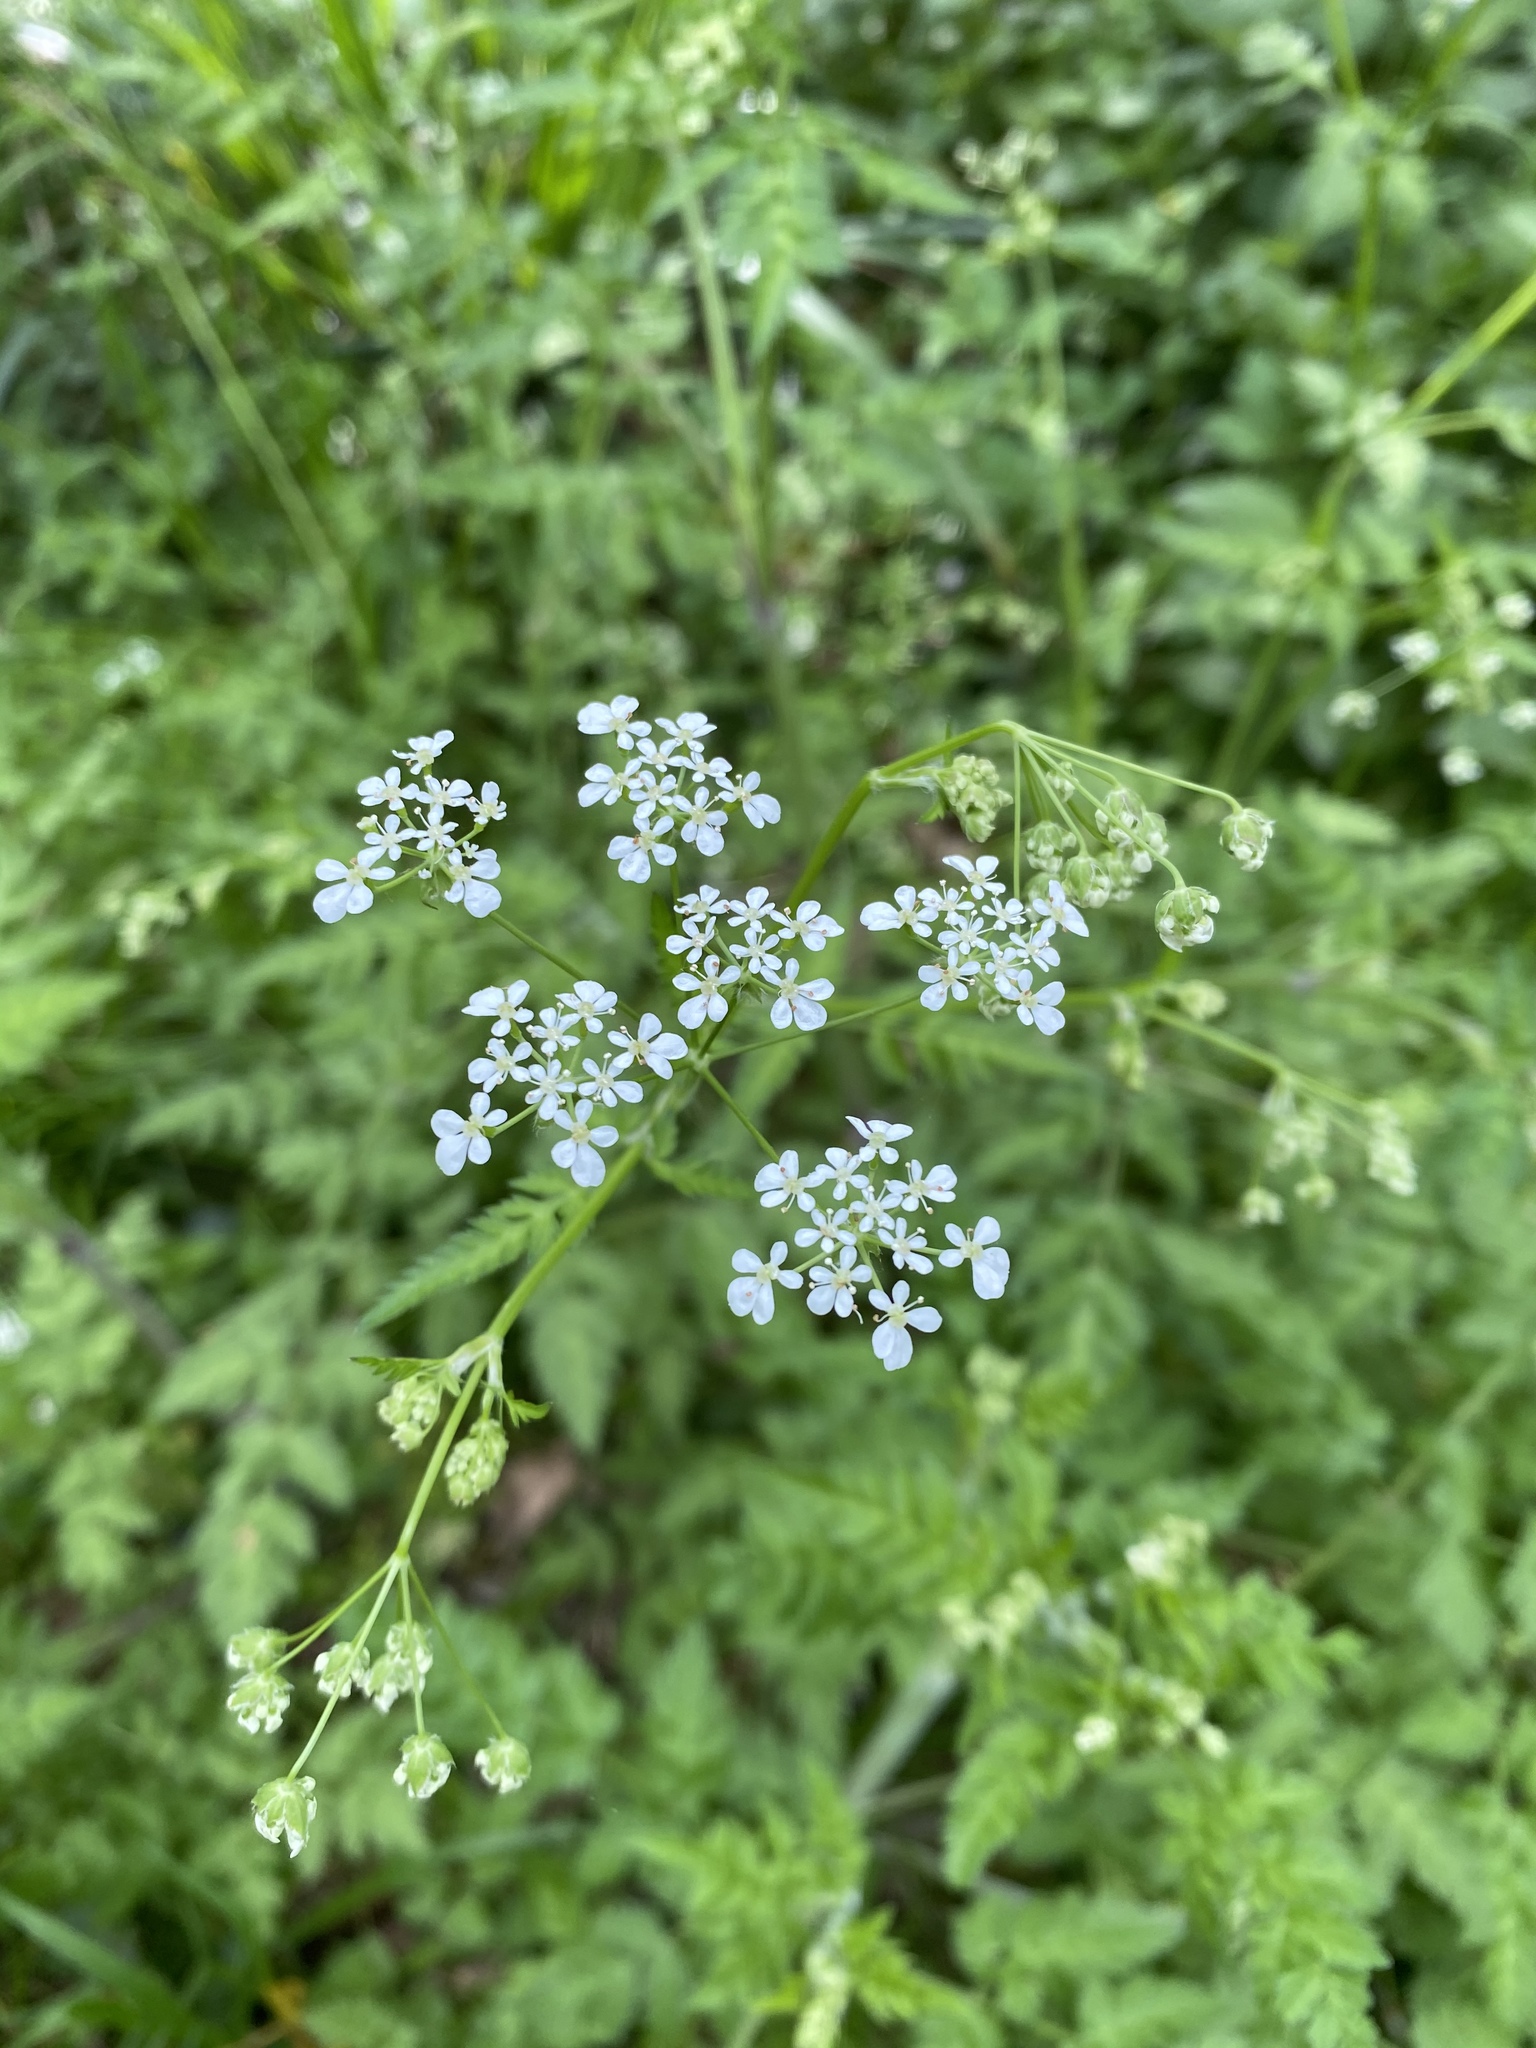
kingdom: Plantae
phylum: Tracheophyta
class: Magnoliopsida
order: Apiales
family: Apiaceae
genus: Anthriscus
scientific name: Anthriscus sylvestris
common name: Cow parsley
